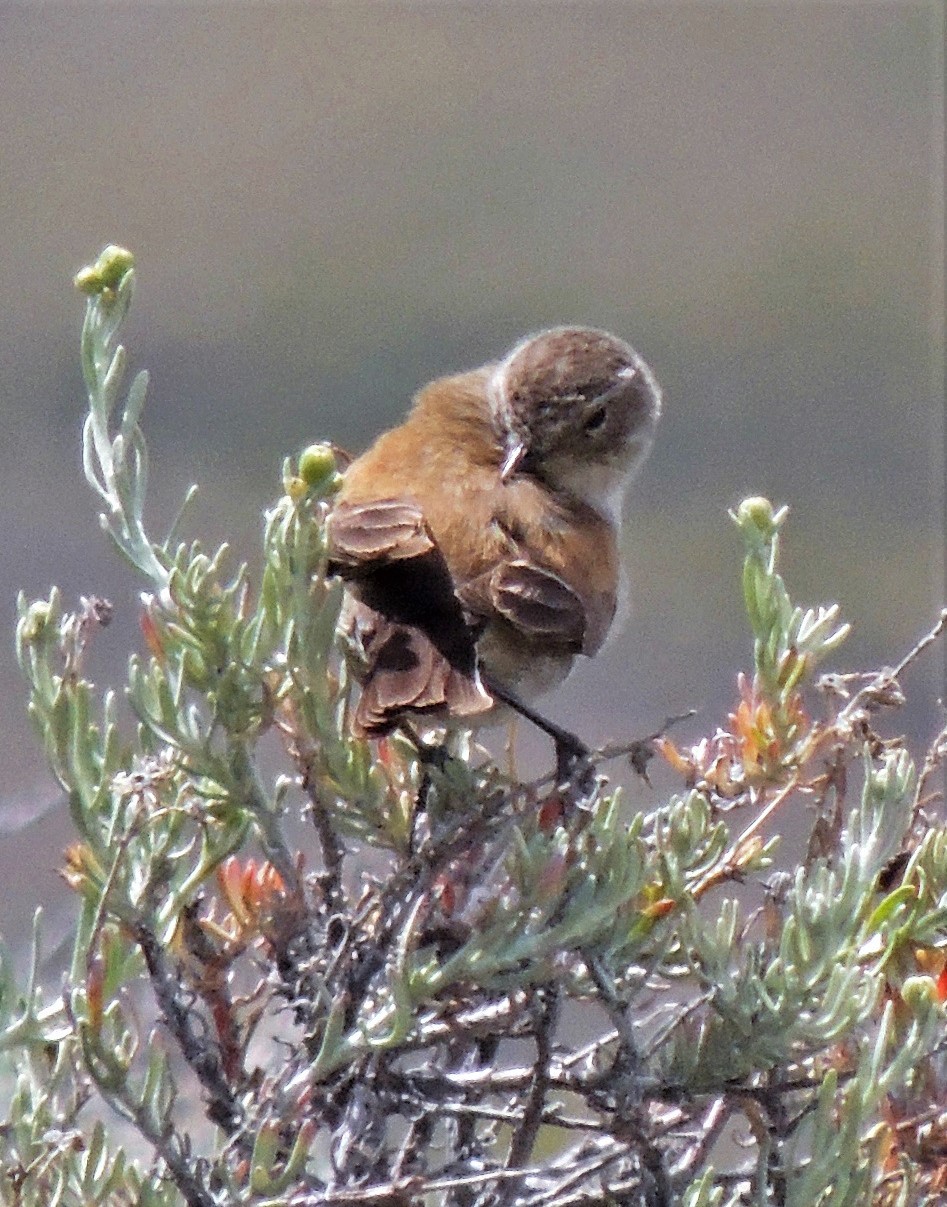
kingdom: Animalia
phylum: Chordata
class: Aves
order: Passeriformes
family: Tyrannidae
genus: Lessonia
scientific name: Lessonia rufa
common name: Austral negrito
